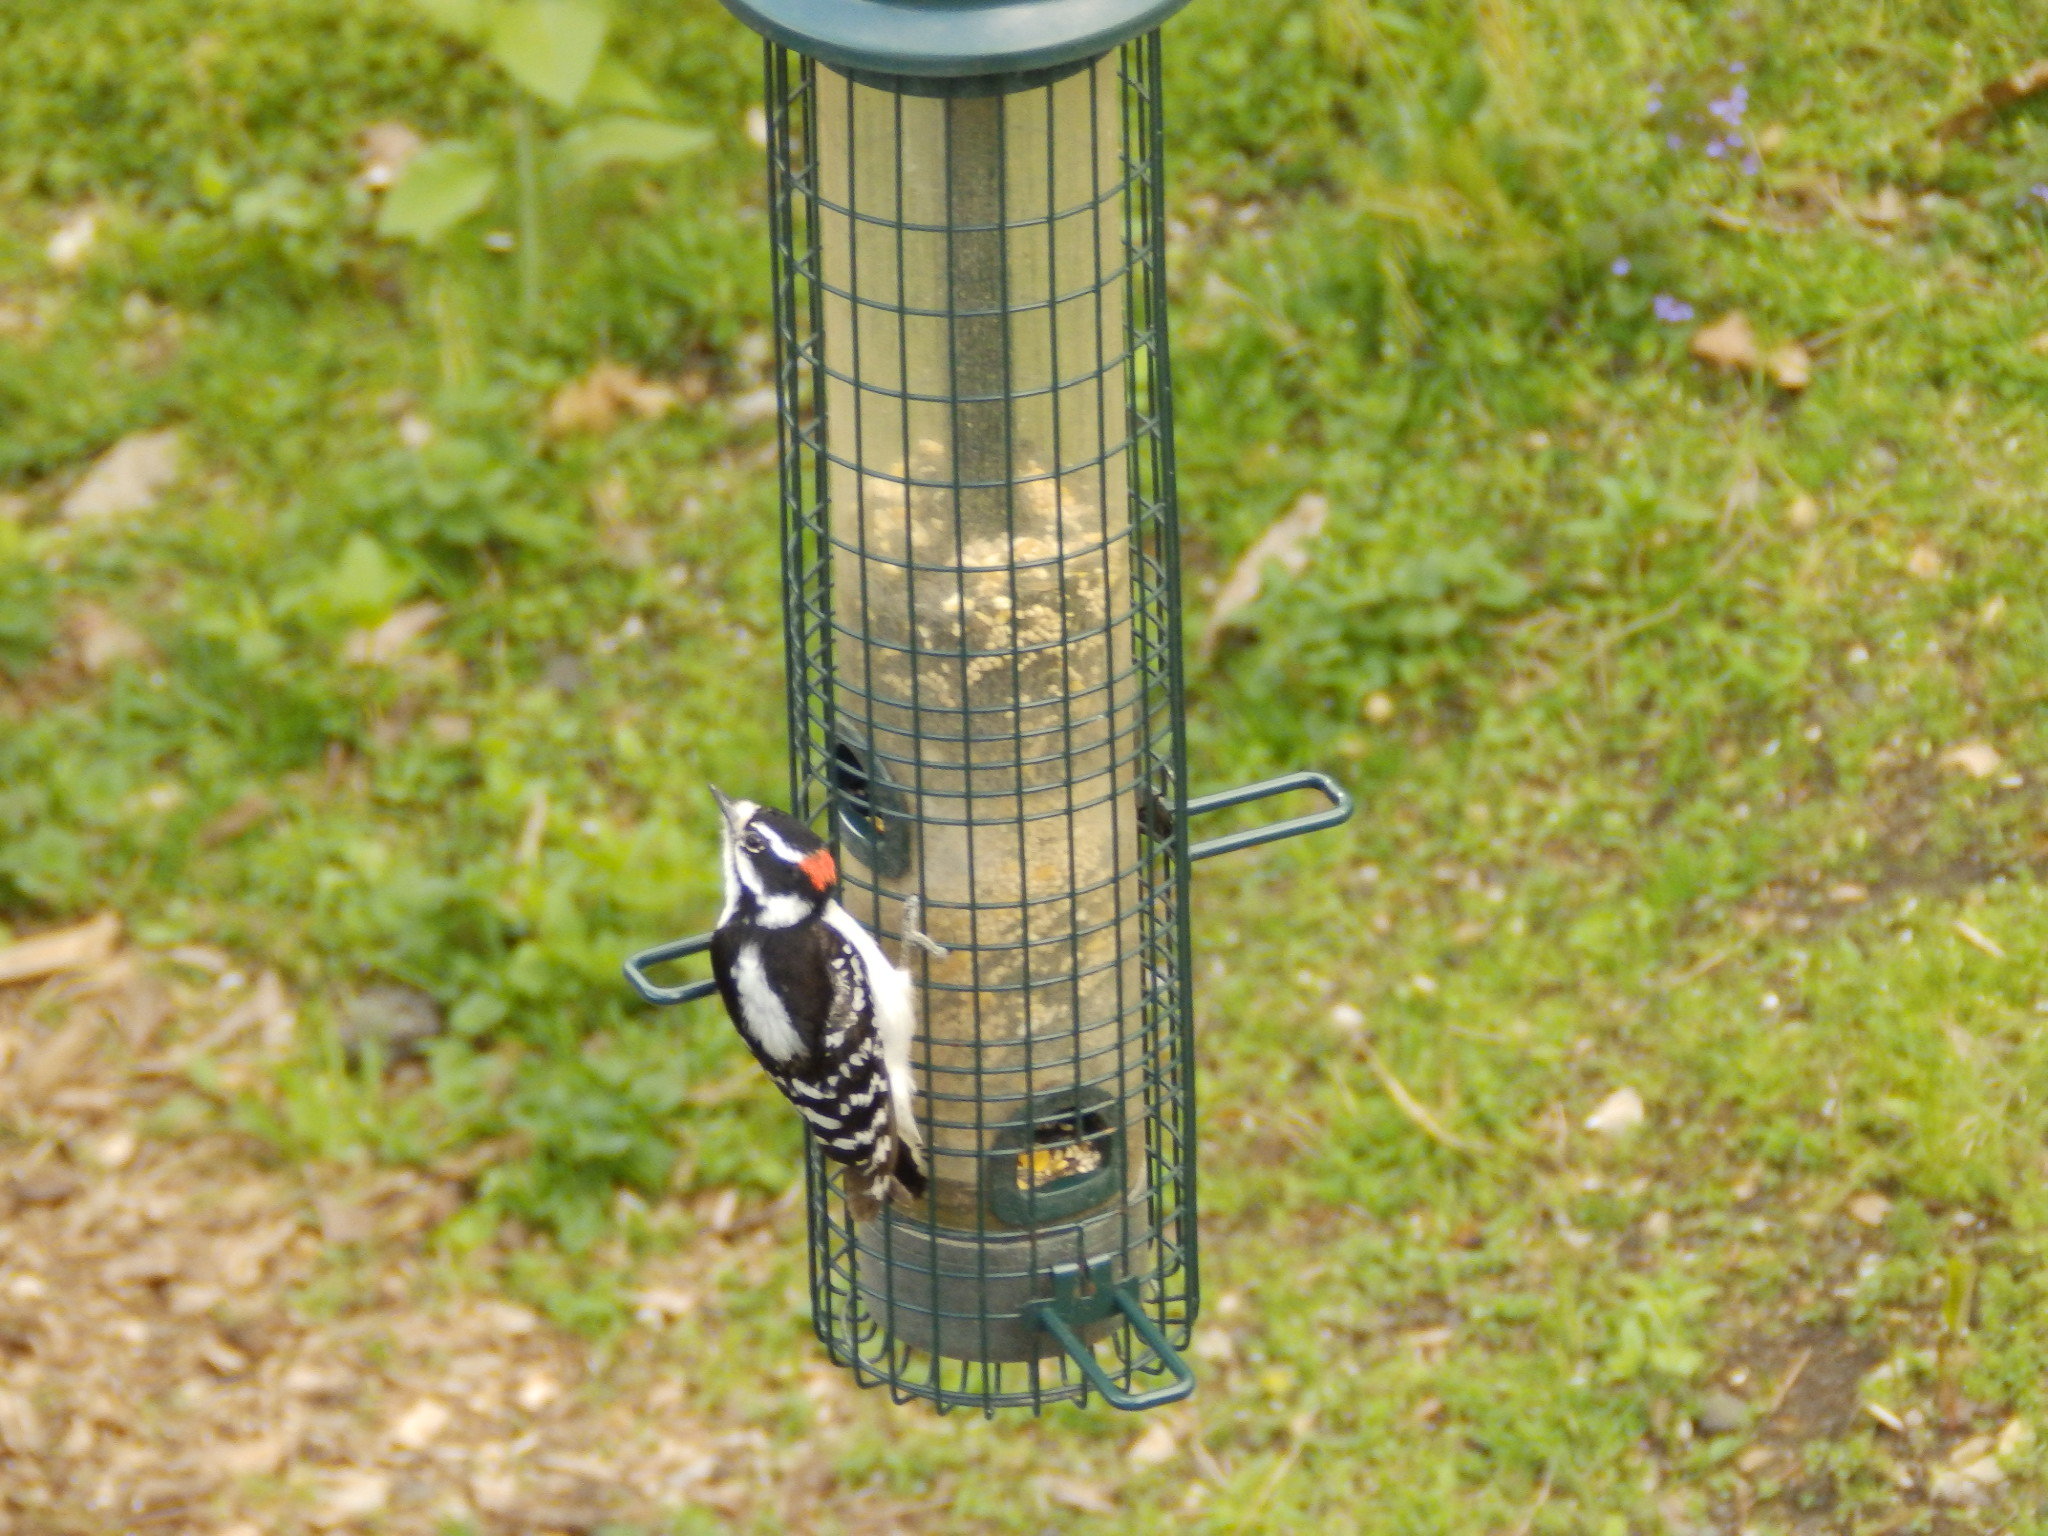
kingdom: Animalia
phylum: Chordata
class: Aves
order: Piciformes
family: Picidae
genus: Dryobates
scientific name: Dryobates pubescens
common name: Downy woodpecker
